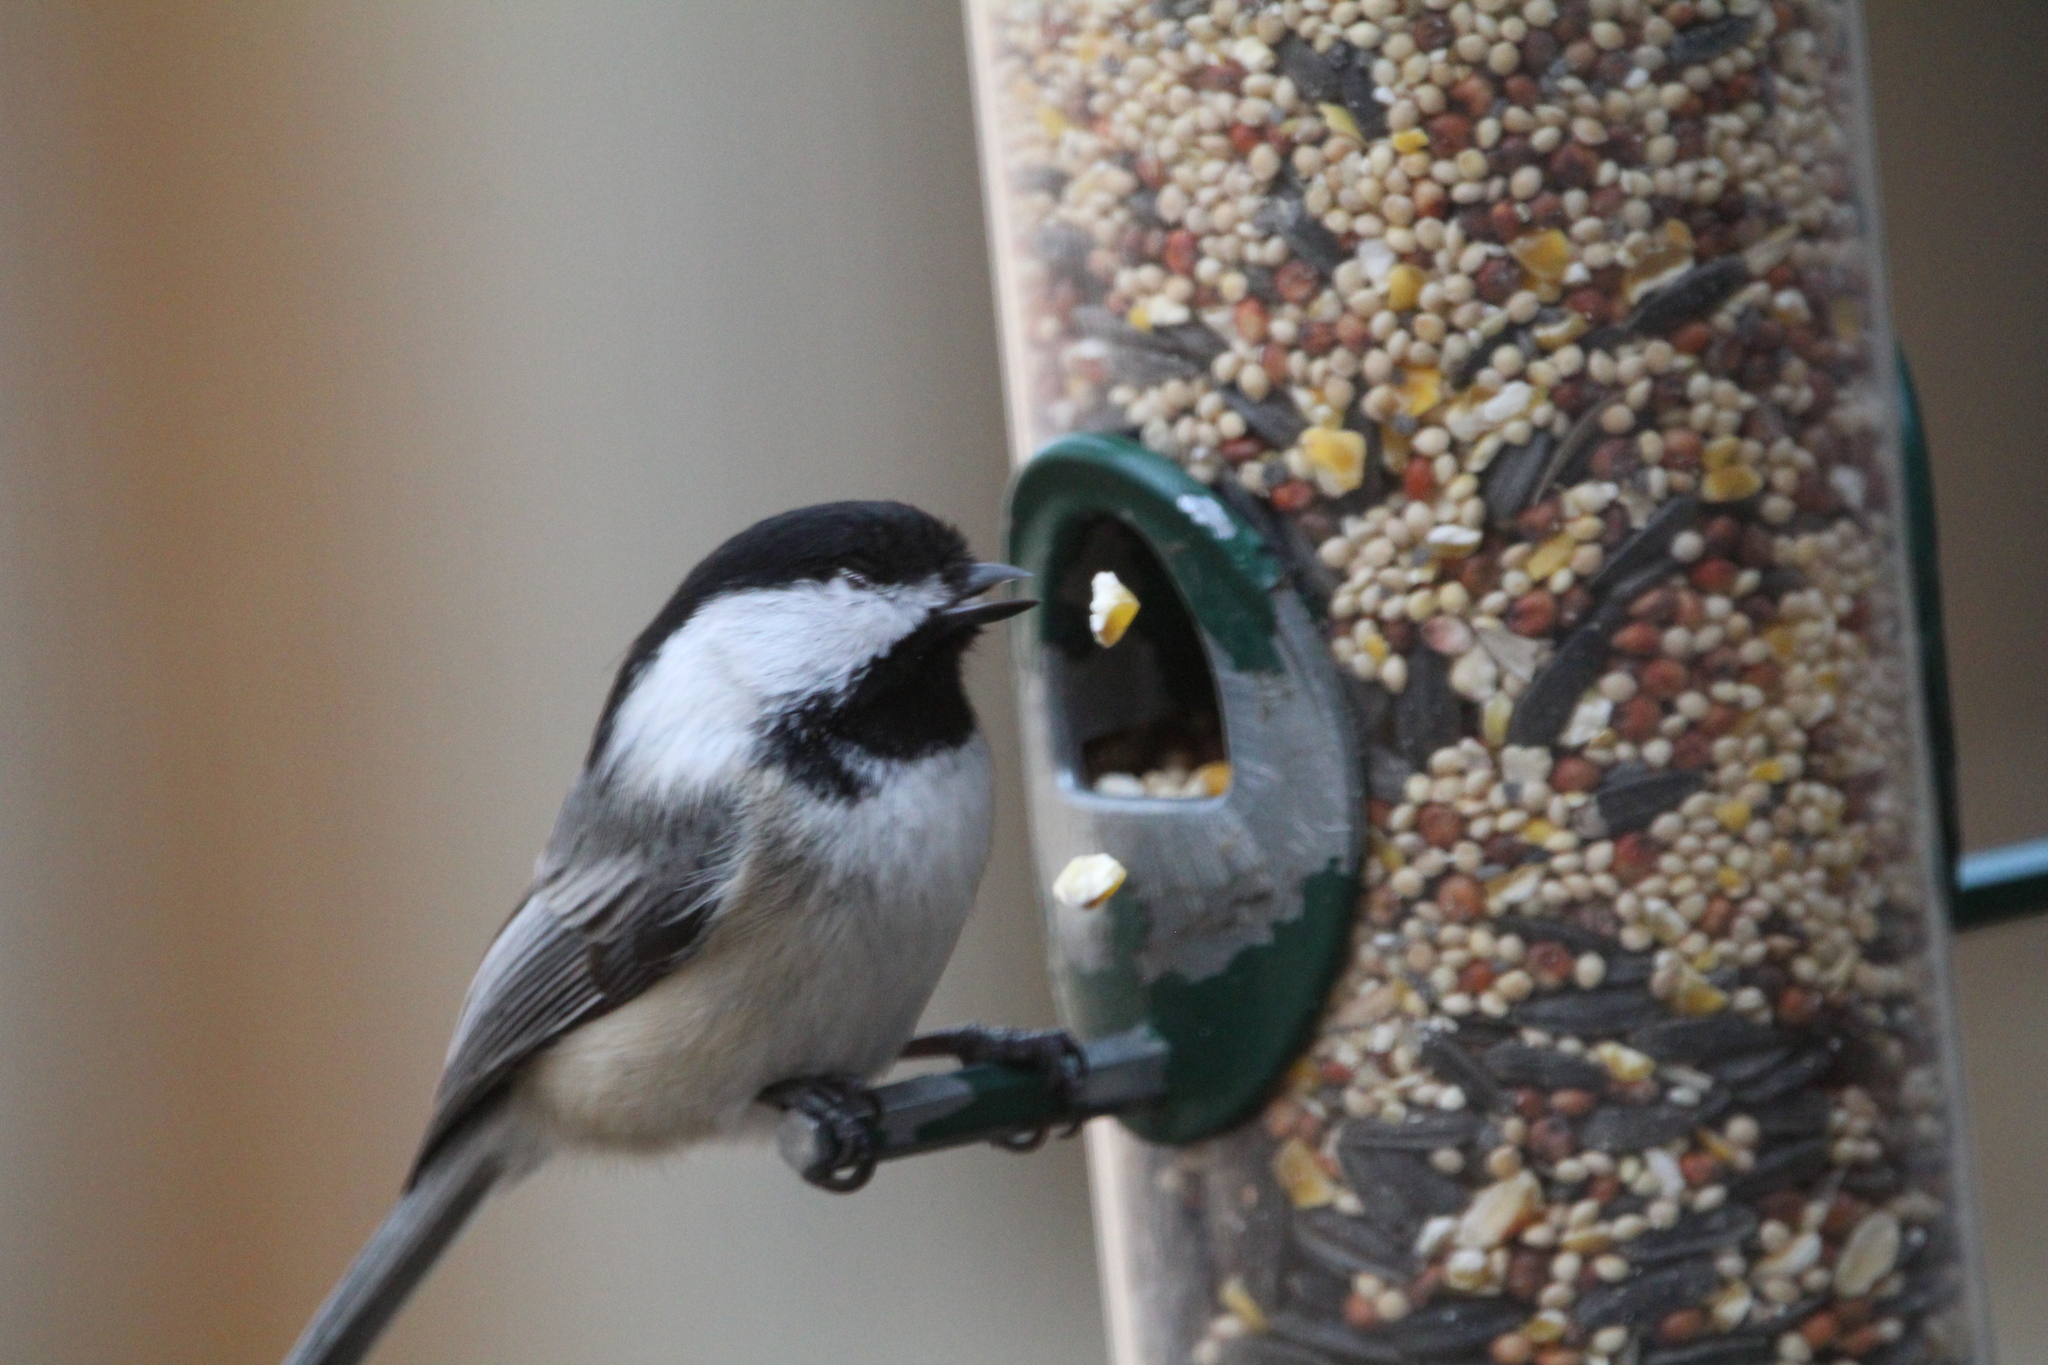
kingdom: Animalia
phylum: Chordata
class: Aves
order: Passeriformes
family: Paridae
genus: Poecile
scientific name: Poecile atricapillus
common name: Black-capped chickadee
